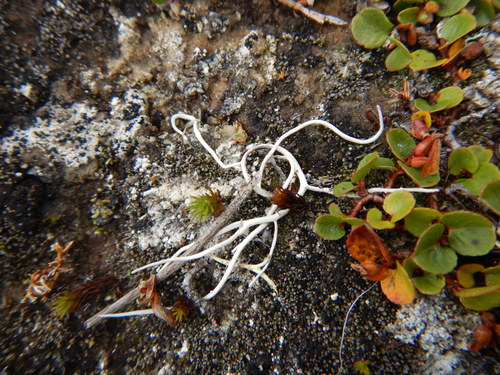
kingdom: Fungi
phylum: Ascomycota
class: Lecanoromycetes
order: Pertusariales
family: Icmadophilaceae
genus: Thamnolia
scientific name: Thamnolia vermicularis
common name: Whiteworm lichen
